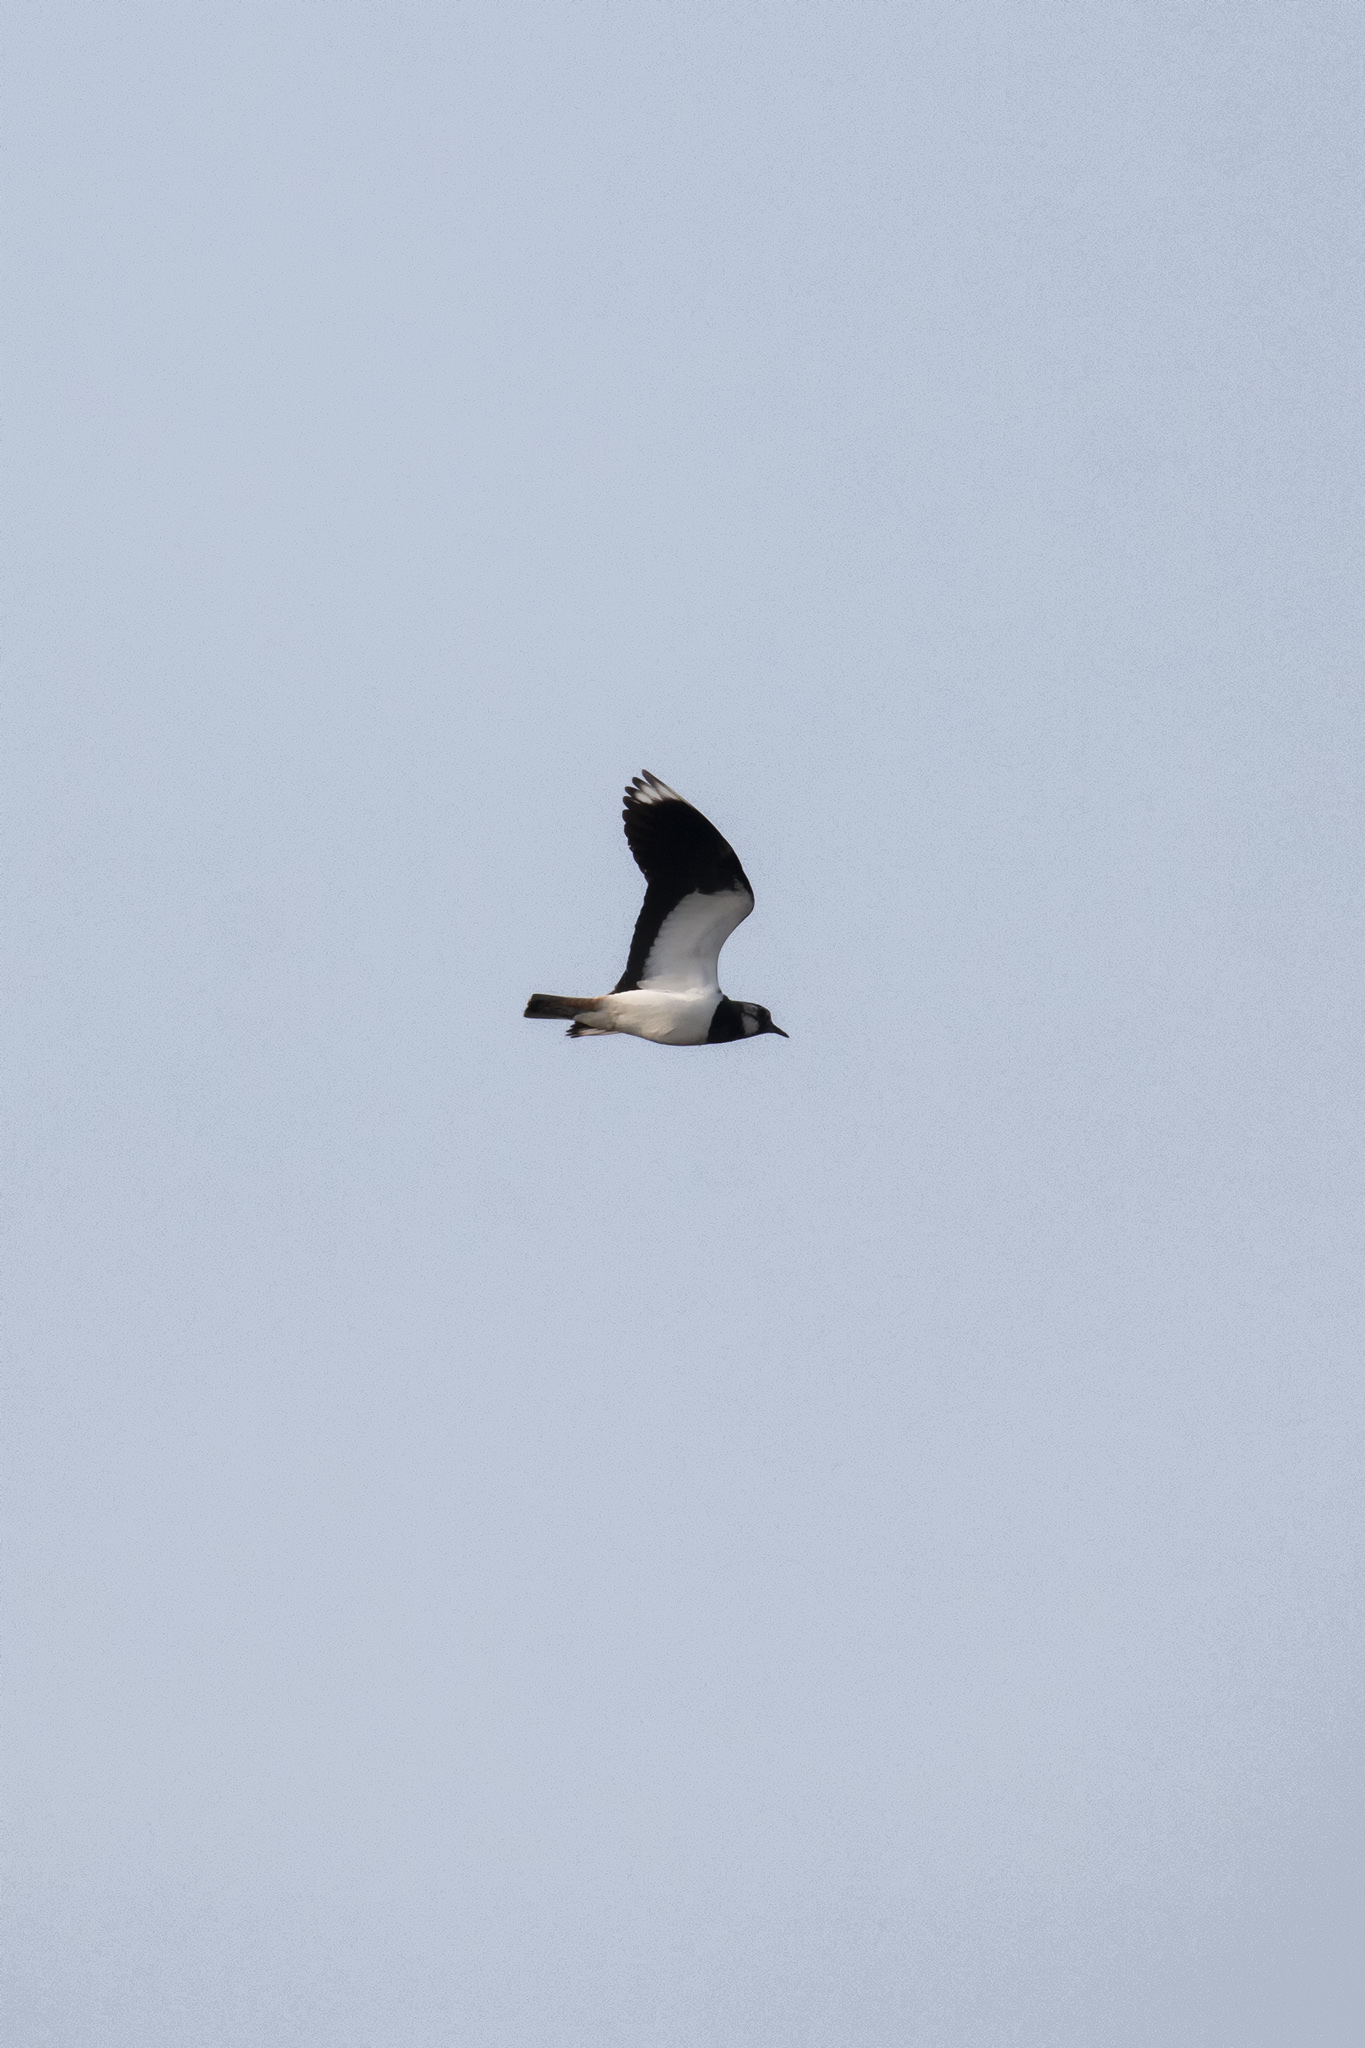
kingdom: Animalia
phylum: Chordata
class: Aves
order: Charadriiformes
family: Charadriidae
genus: Vanellus
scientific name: Vanellus vanellus
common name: Northern lapwing
